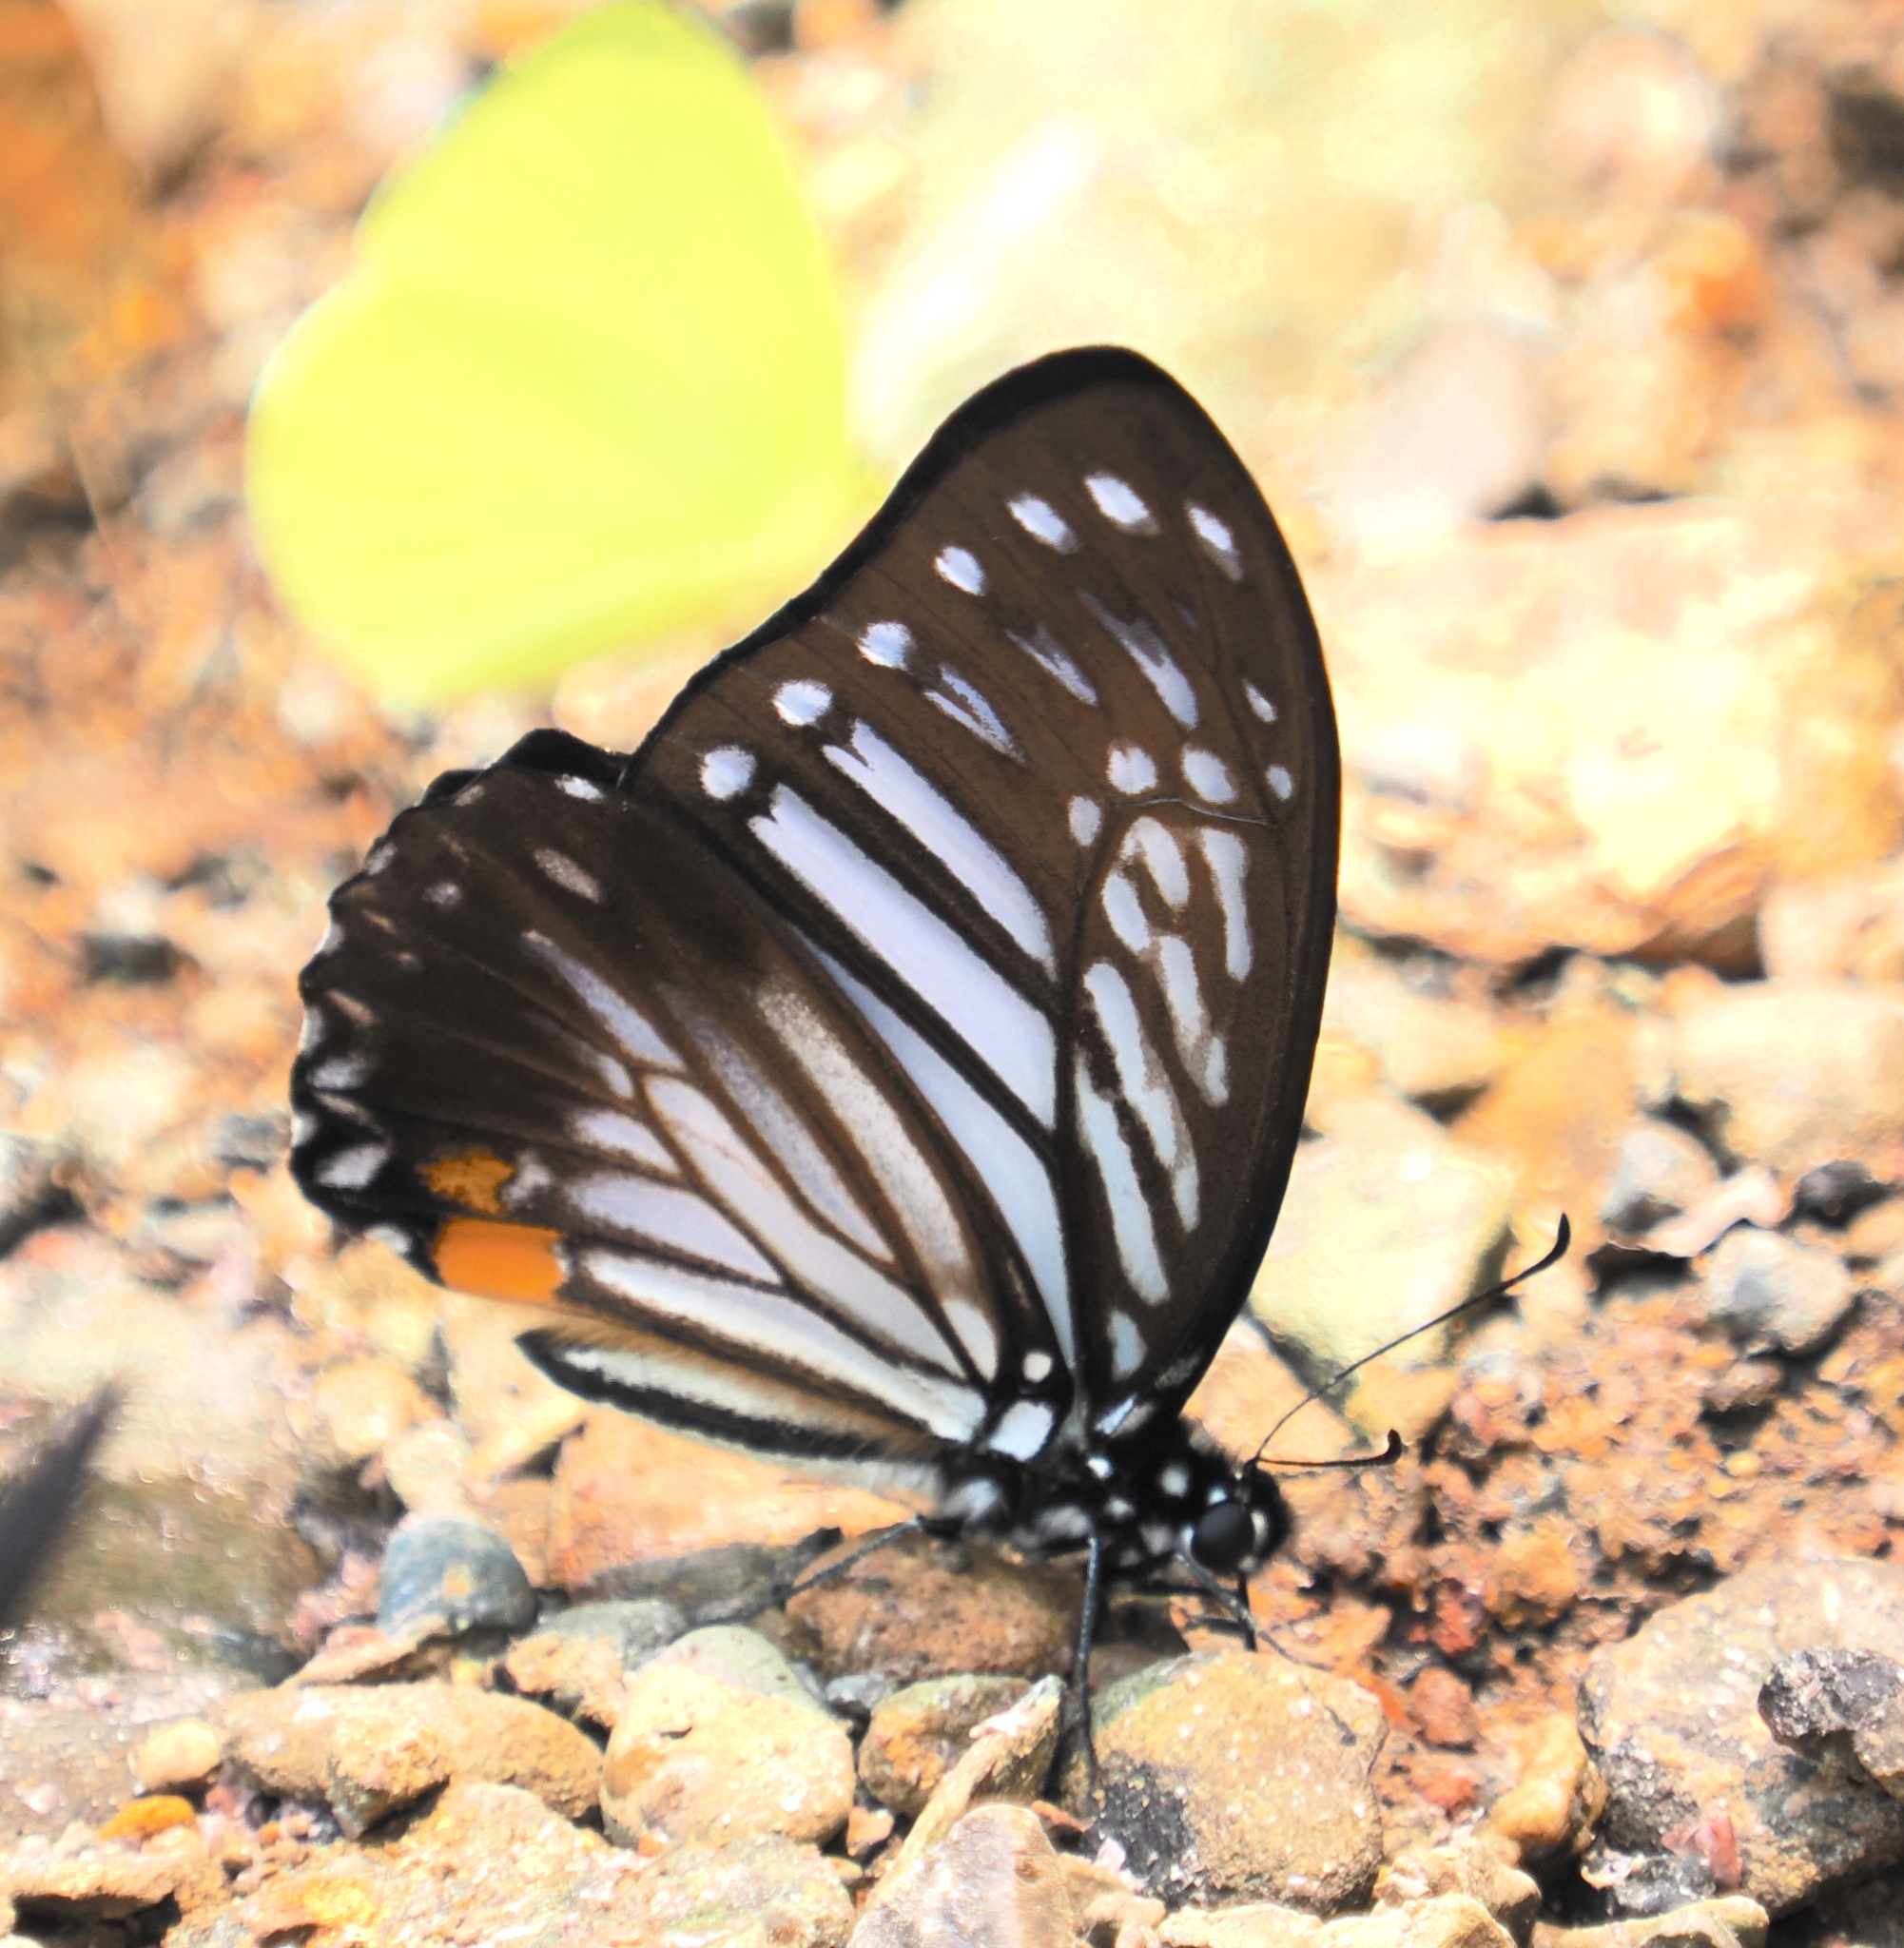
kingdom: Animalia
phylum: Arthropoda
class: Insecta
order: Lepidoptera
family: Papilionidae
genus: Graphium
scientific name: Graphium xenocles
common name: Great zebra
